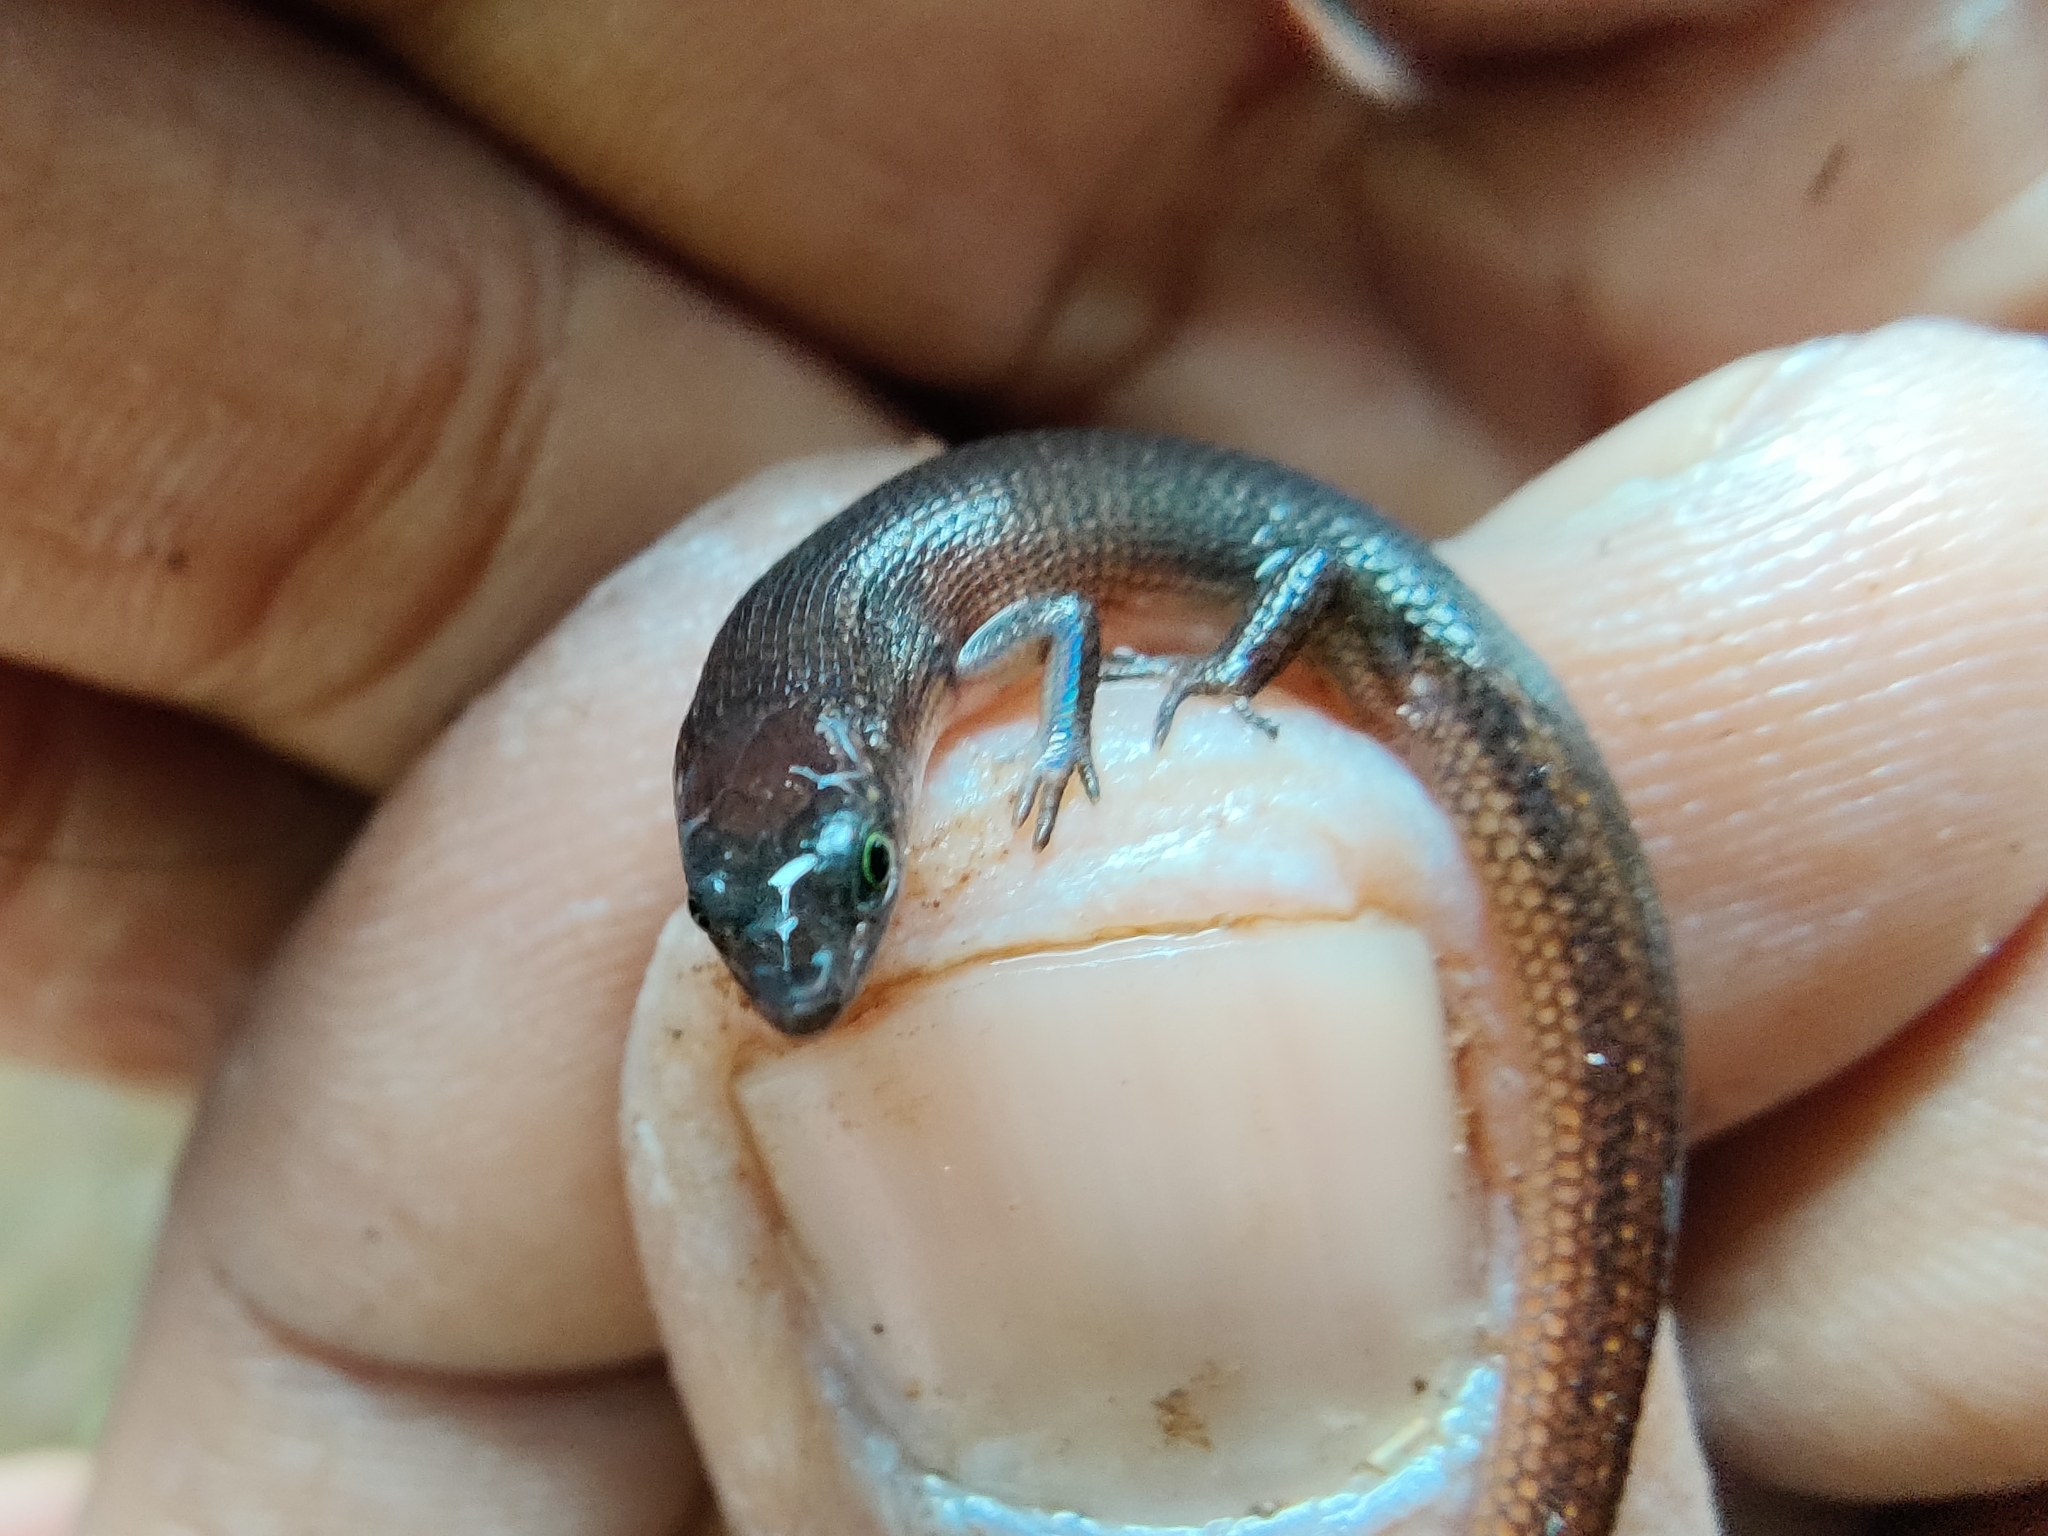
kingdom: Animalia
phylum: Chordata
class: Squamata
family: Scincidae
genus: Ristella
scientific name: Ristella beddomii
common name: Beddome's cat skink
